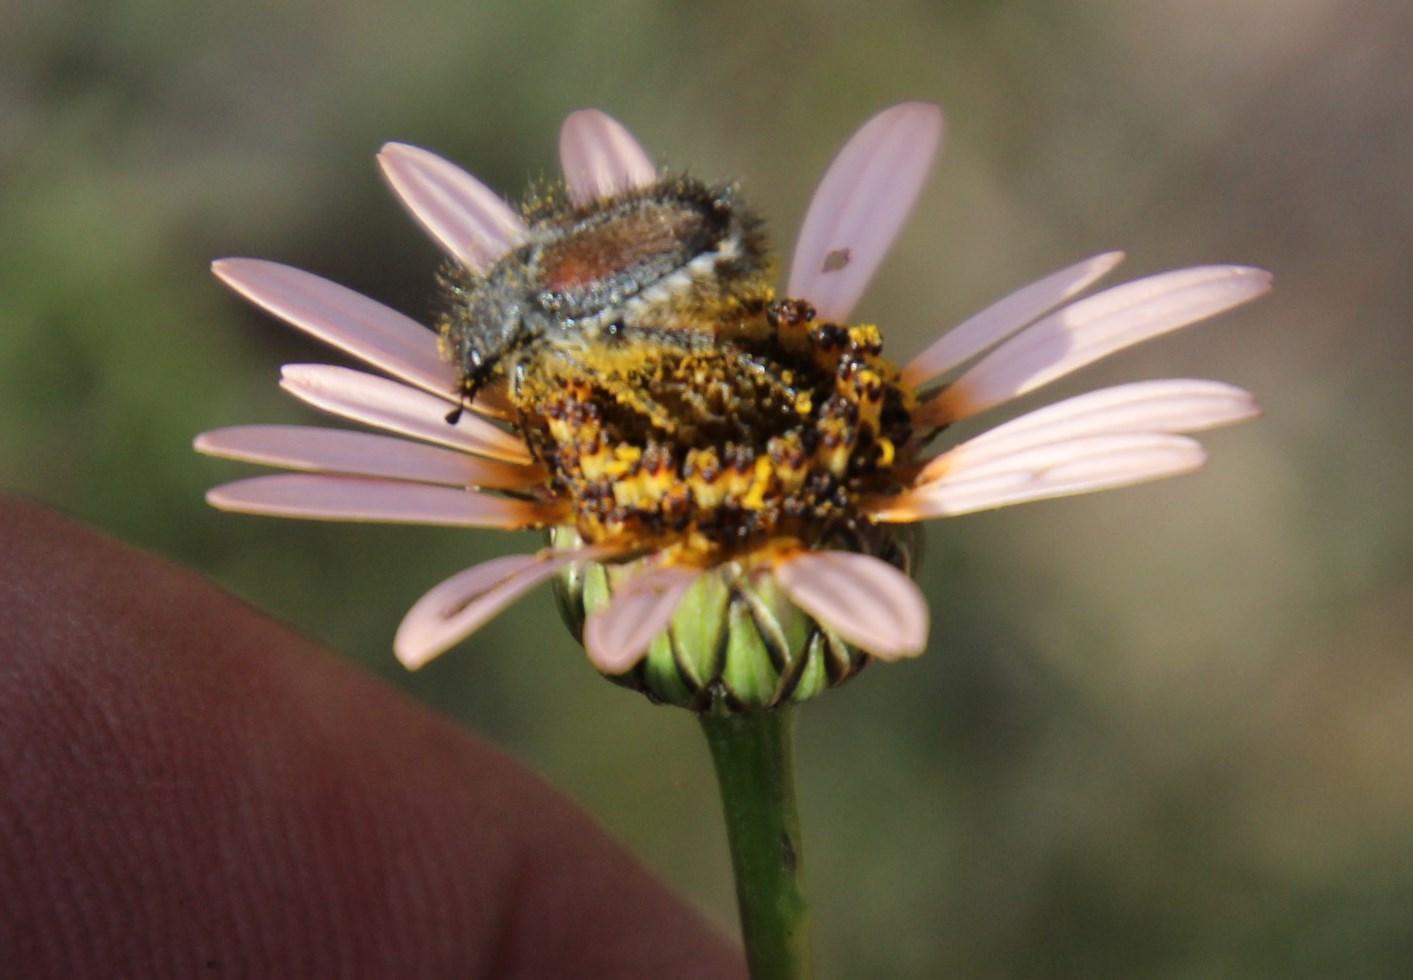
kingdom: Plantae
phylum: Tracheophyta
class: Magnoliopsida
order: Asterales
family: Asteraceae
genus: Ursinia
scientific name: Ursinia anthemoides
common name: Ursinia
